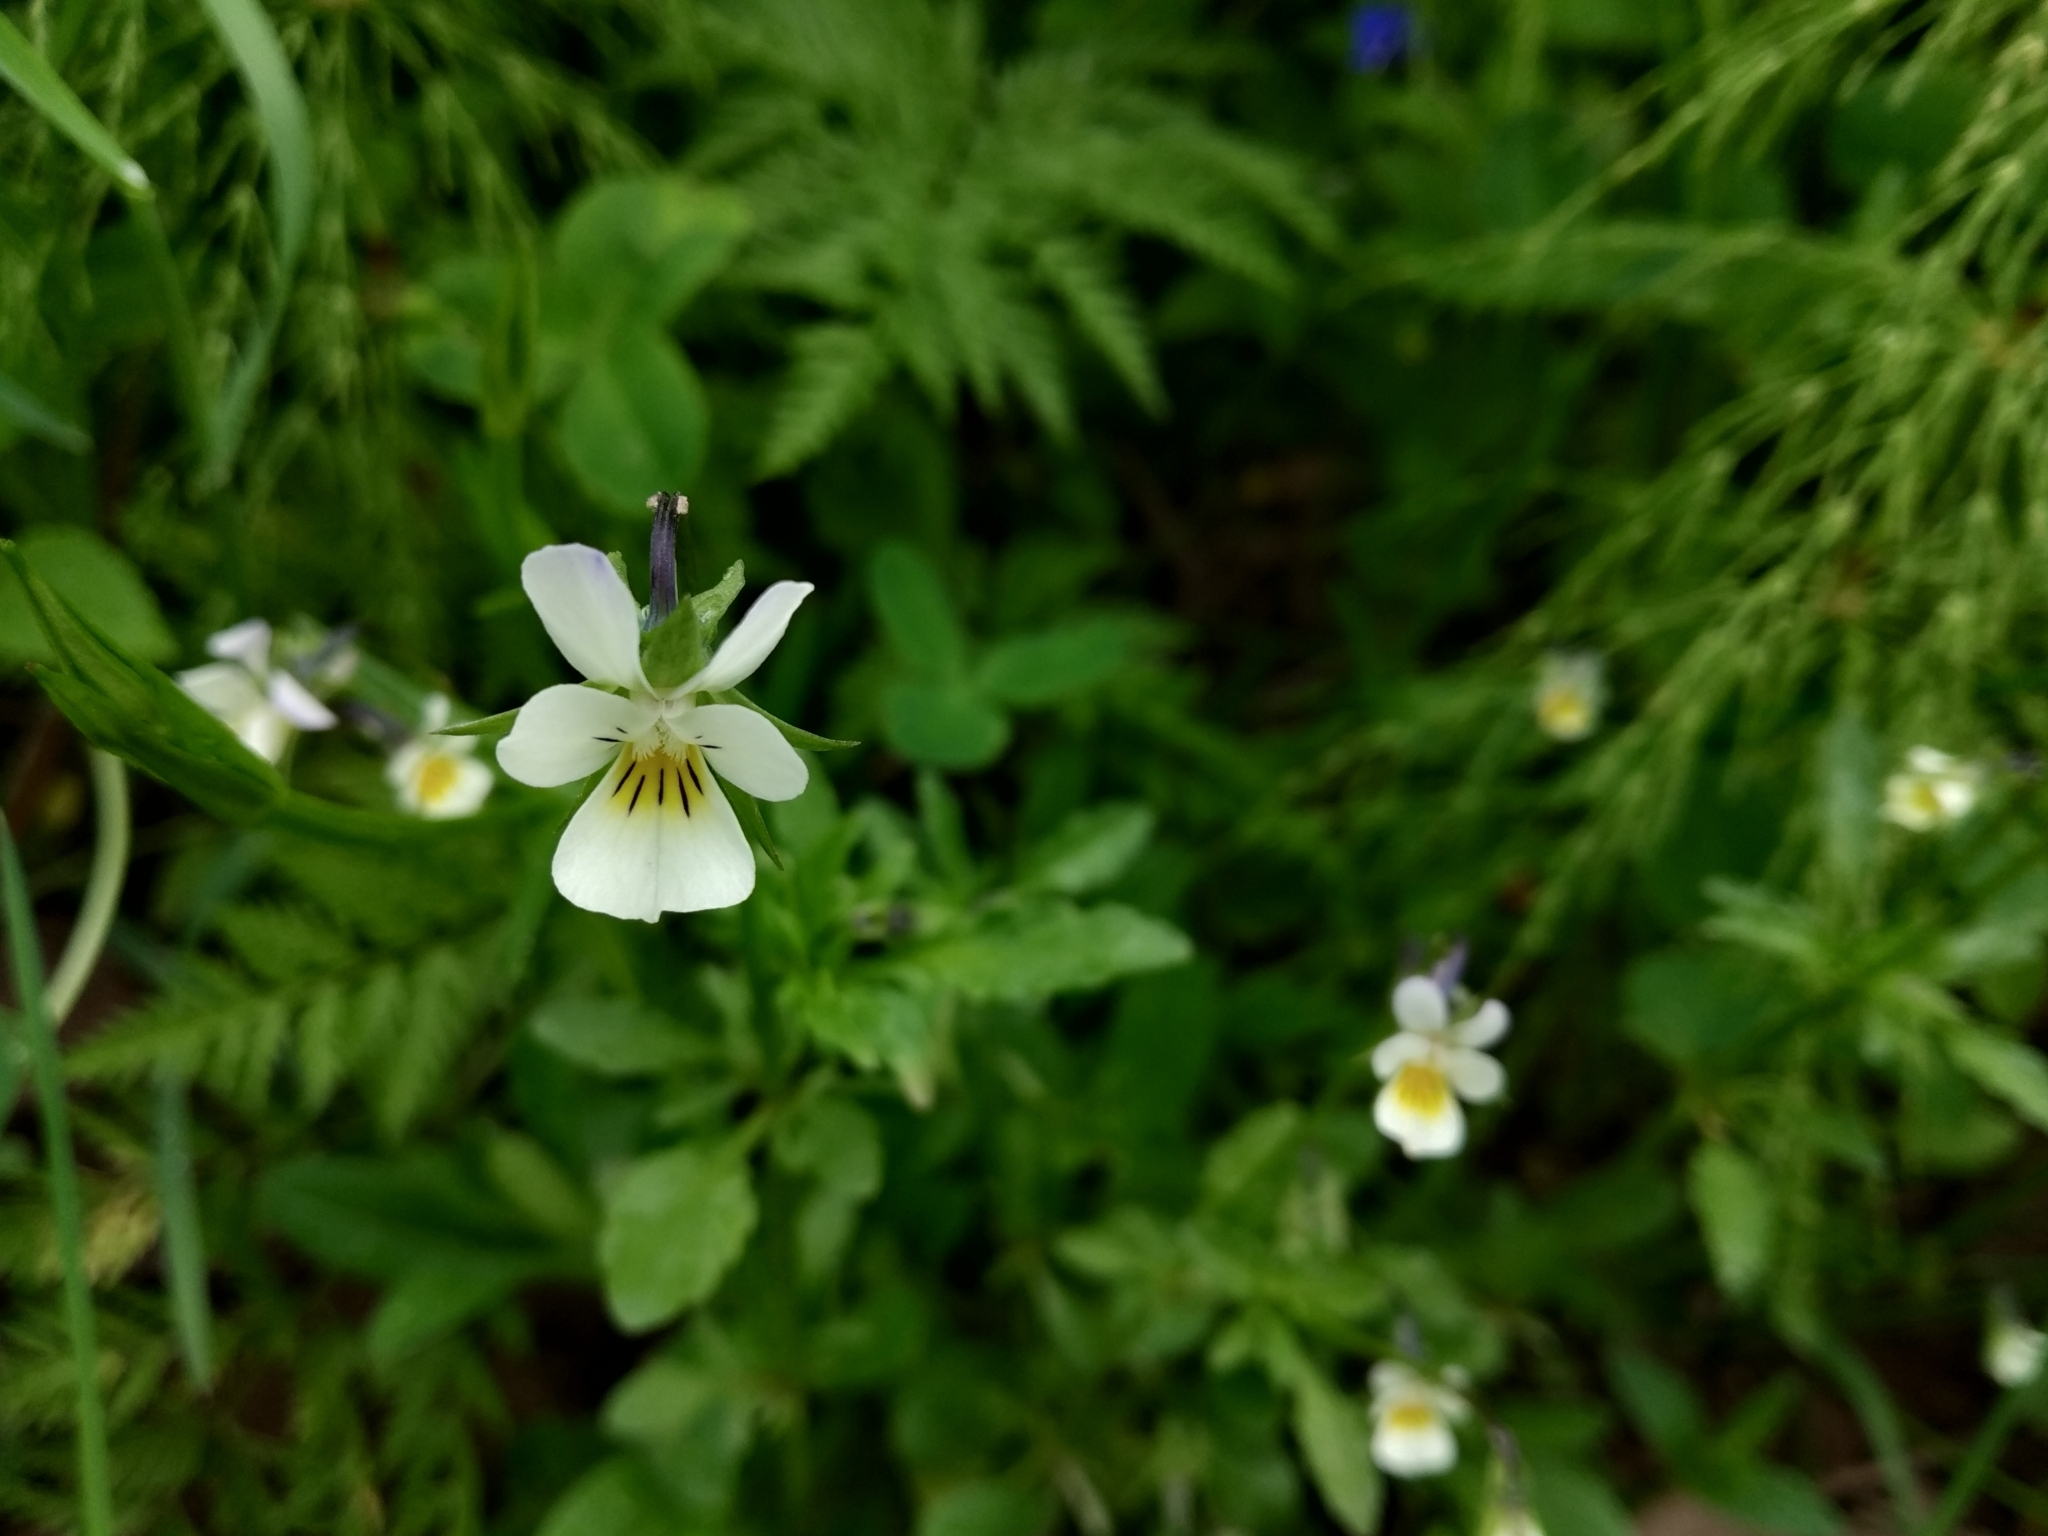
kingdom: Plantae
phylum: Tracheophyta
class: Magnoliopsida
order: Malpighiales
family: Violaceae
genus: Viola
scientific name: Viola arvensis
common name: Field pansy
